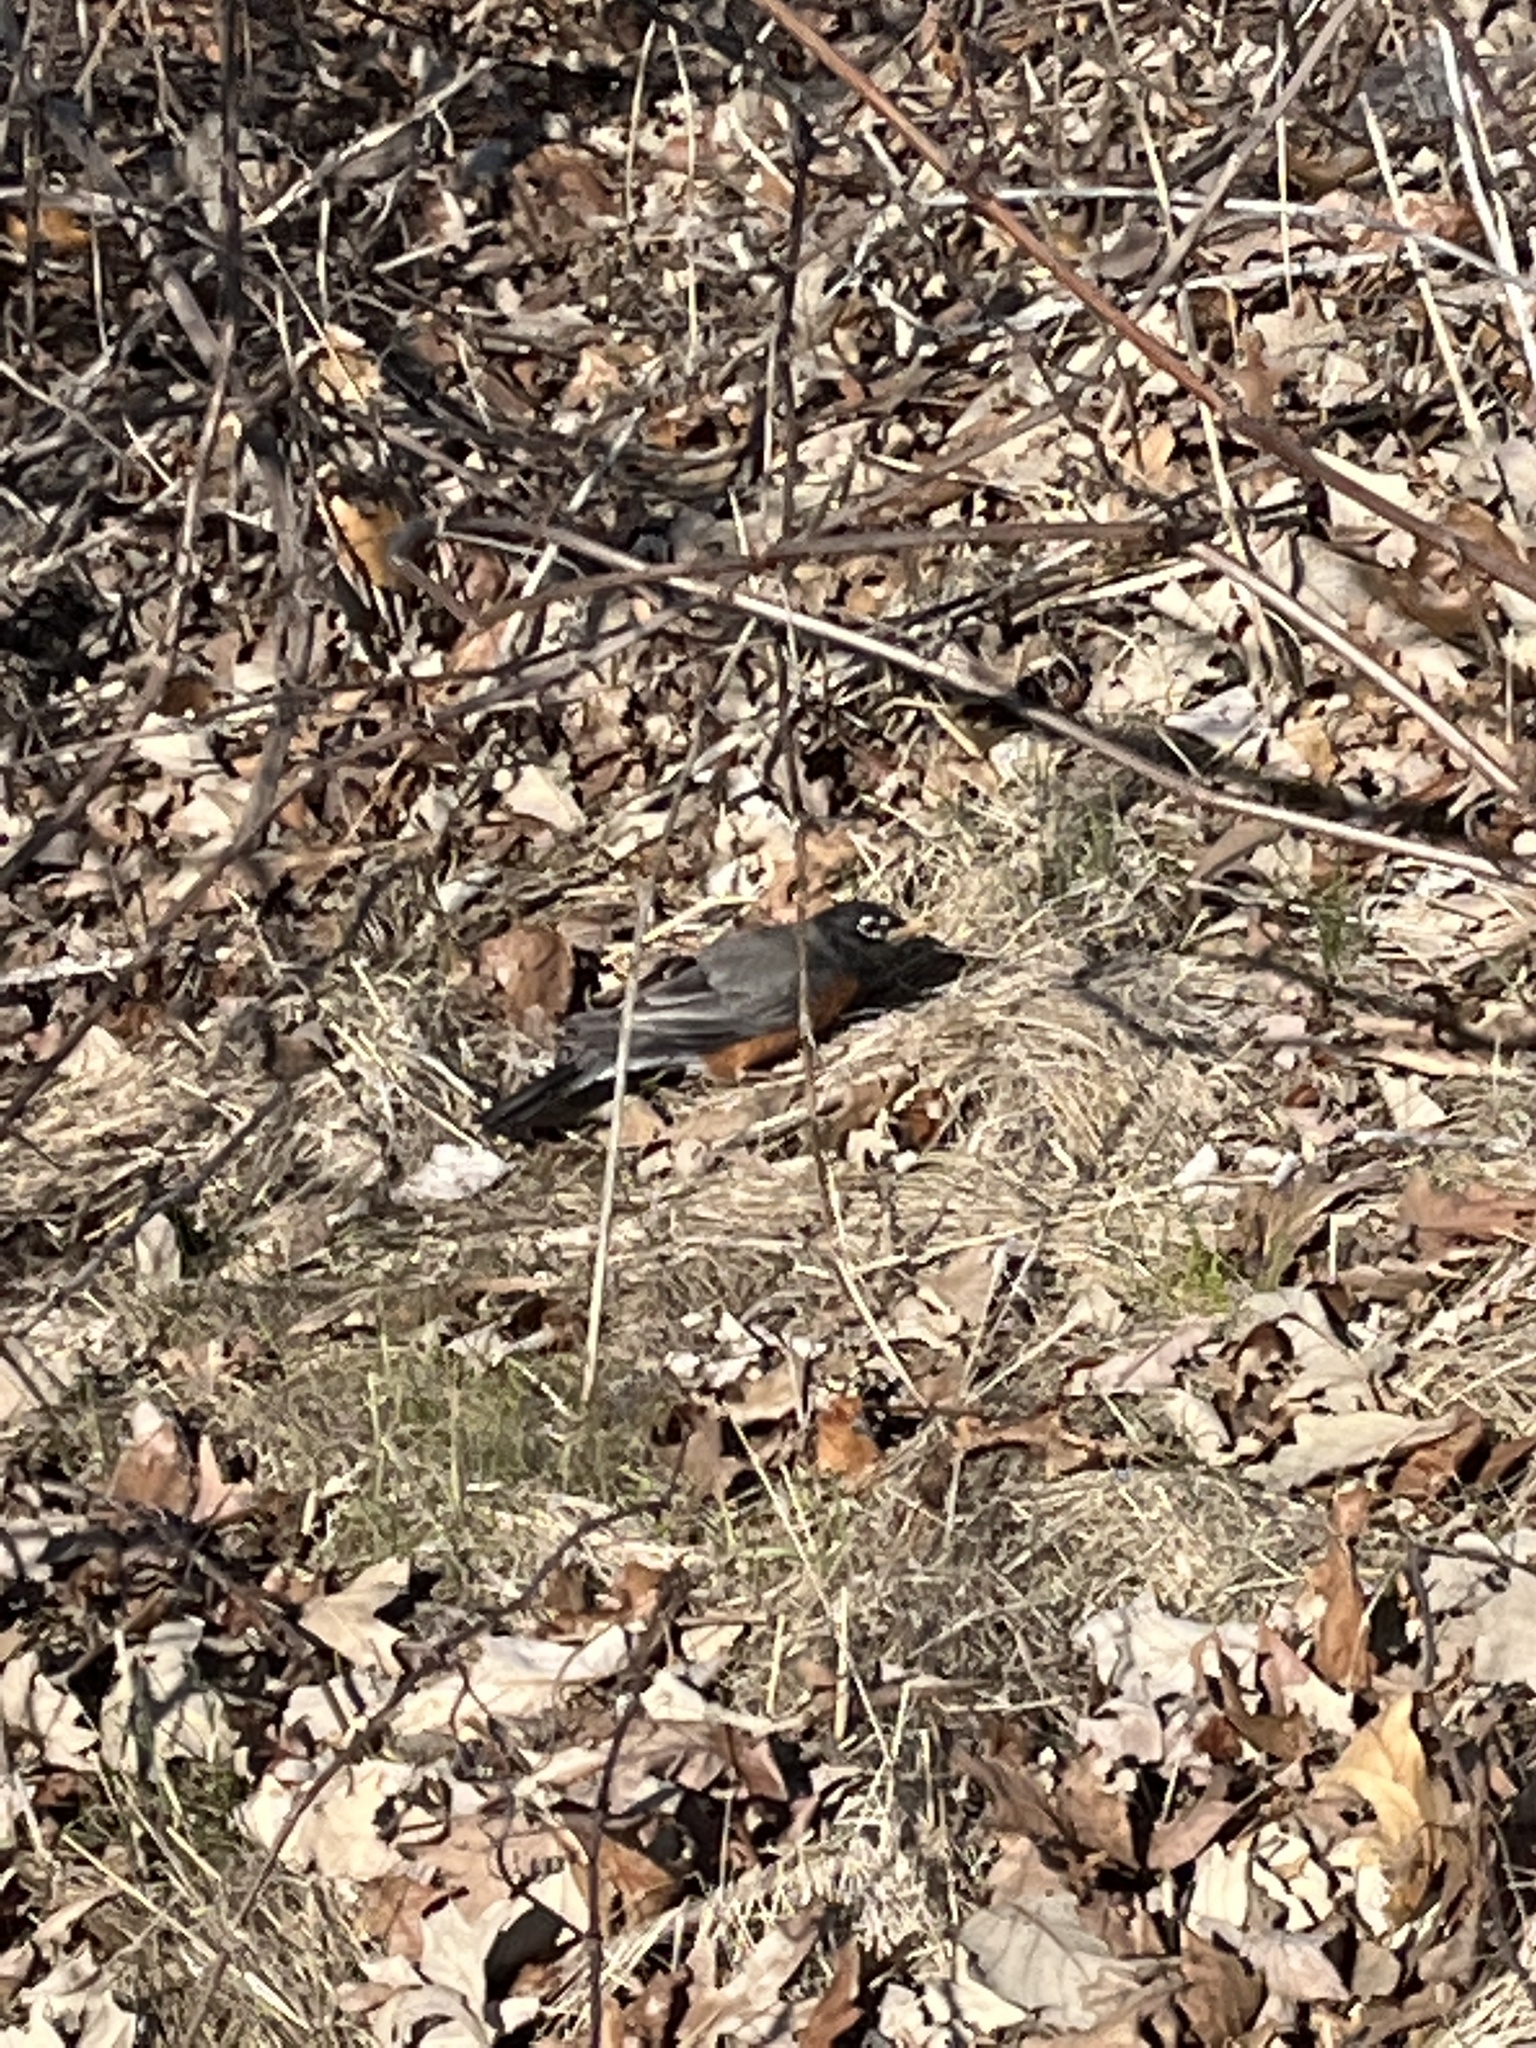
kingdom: Animalia
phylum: Chordata
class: Aves
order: Passeriformes
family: Turdidae
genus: Turdus
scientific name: Turdus migratorius
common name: American robin
